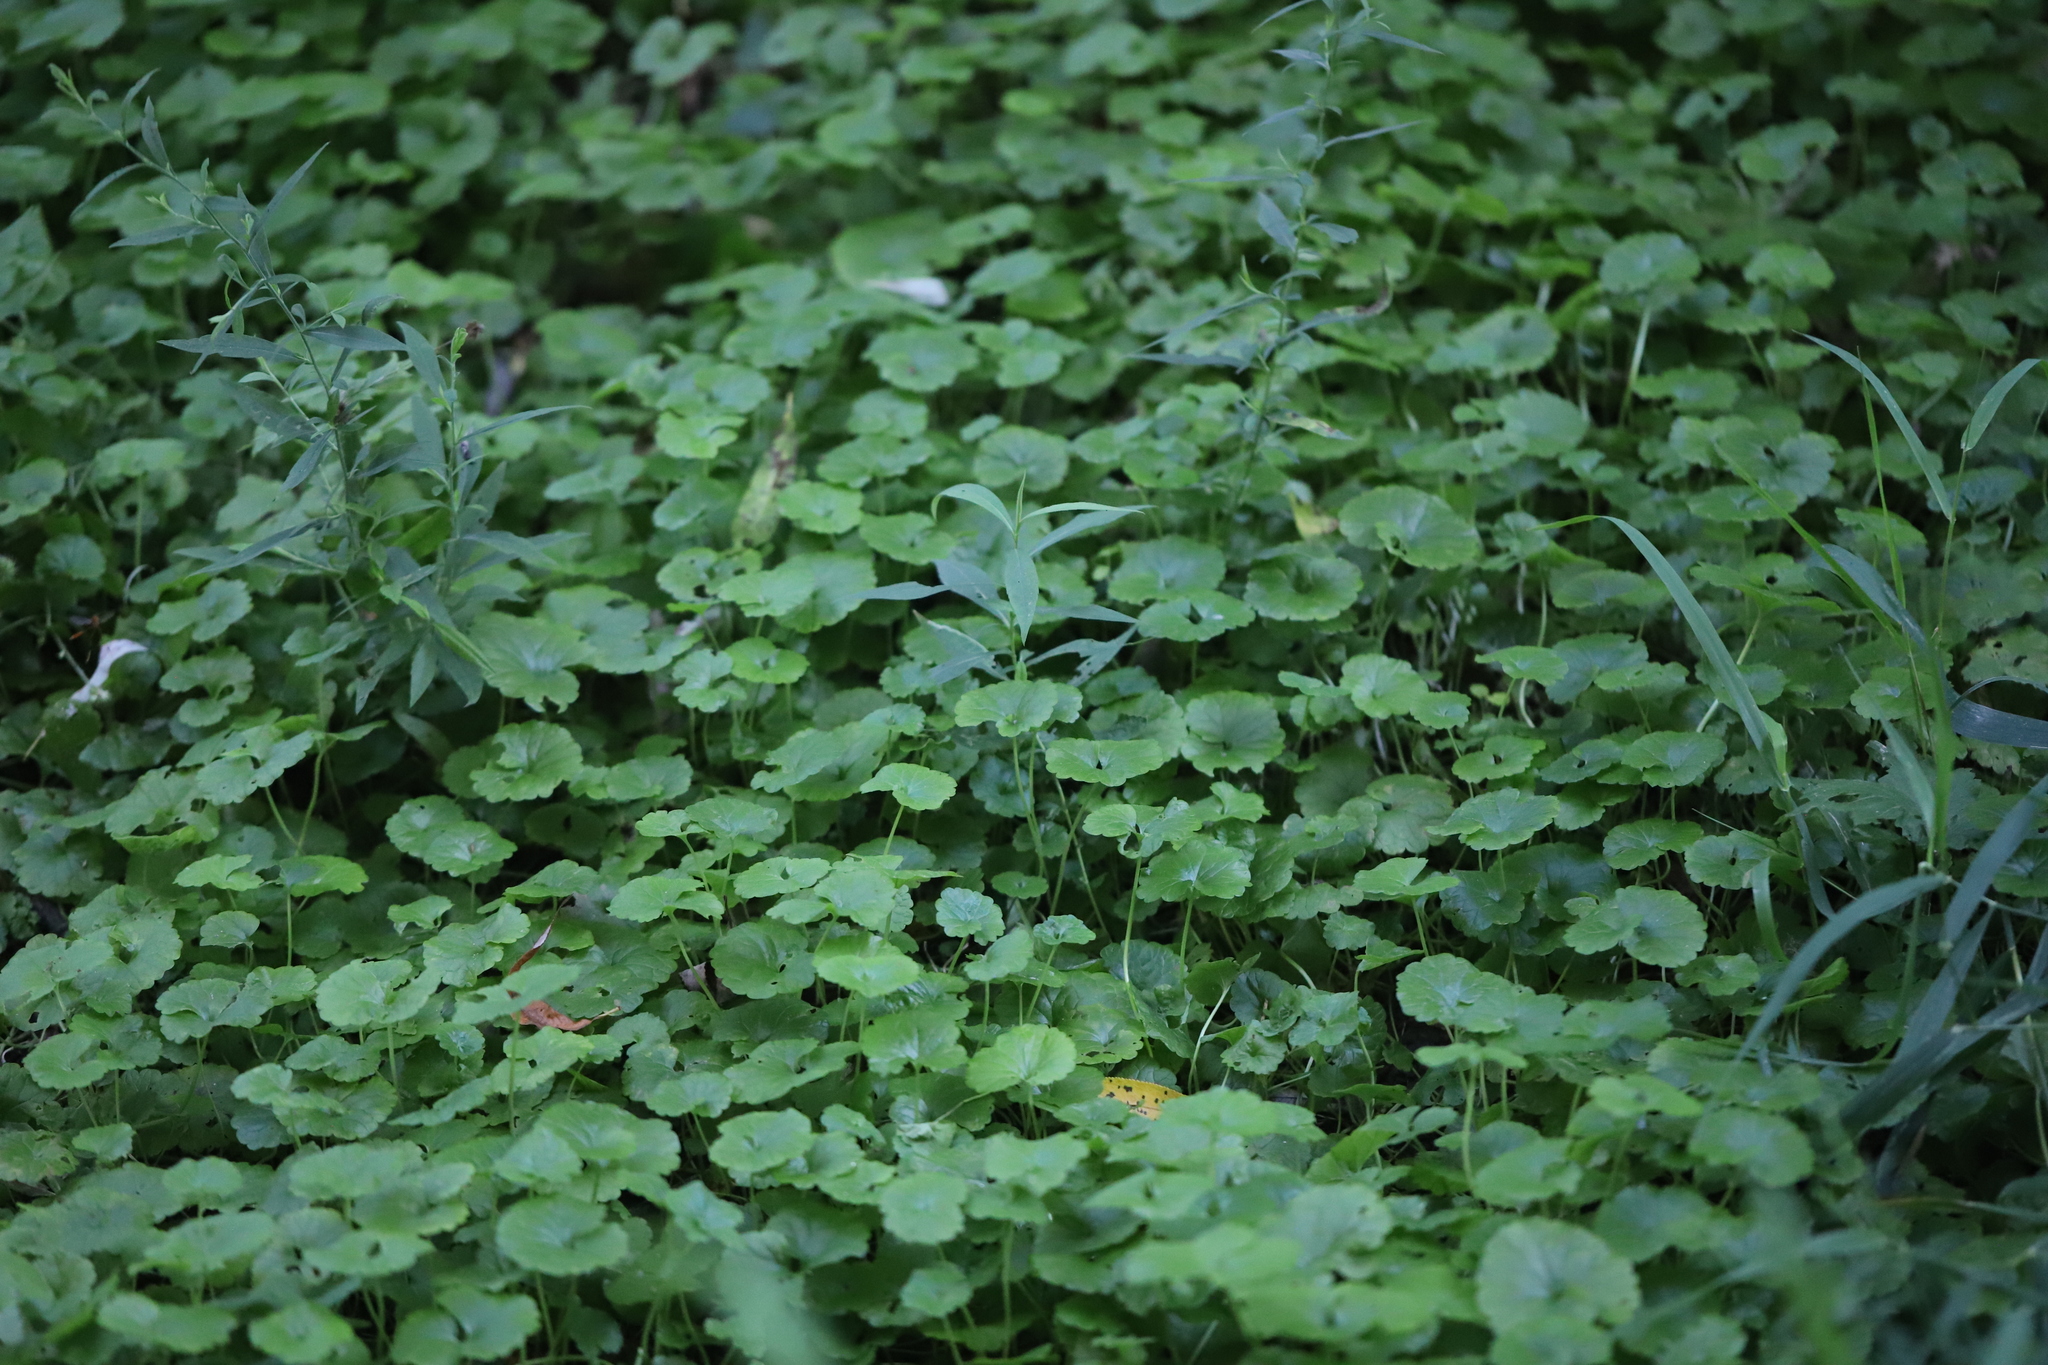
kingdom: Plantae
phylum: Tracheophyta
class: Magnoliopsida
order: Lamiales
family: Lamiaceae
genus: Glechoma
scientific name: Glechoma hederacea
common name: Ground ivy
